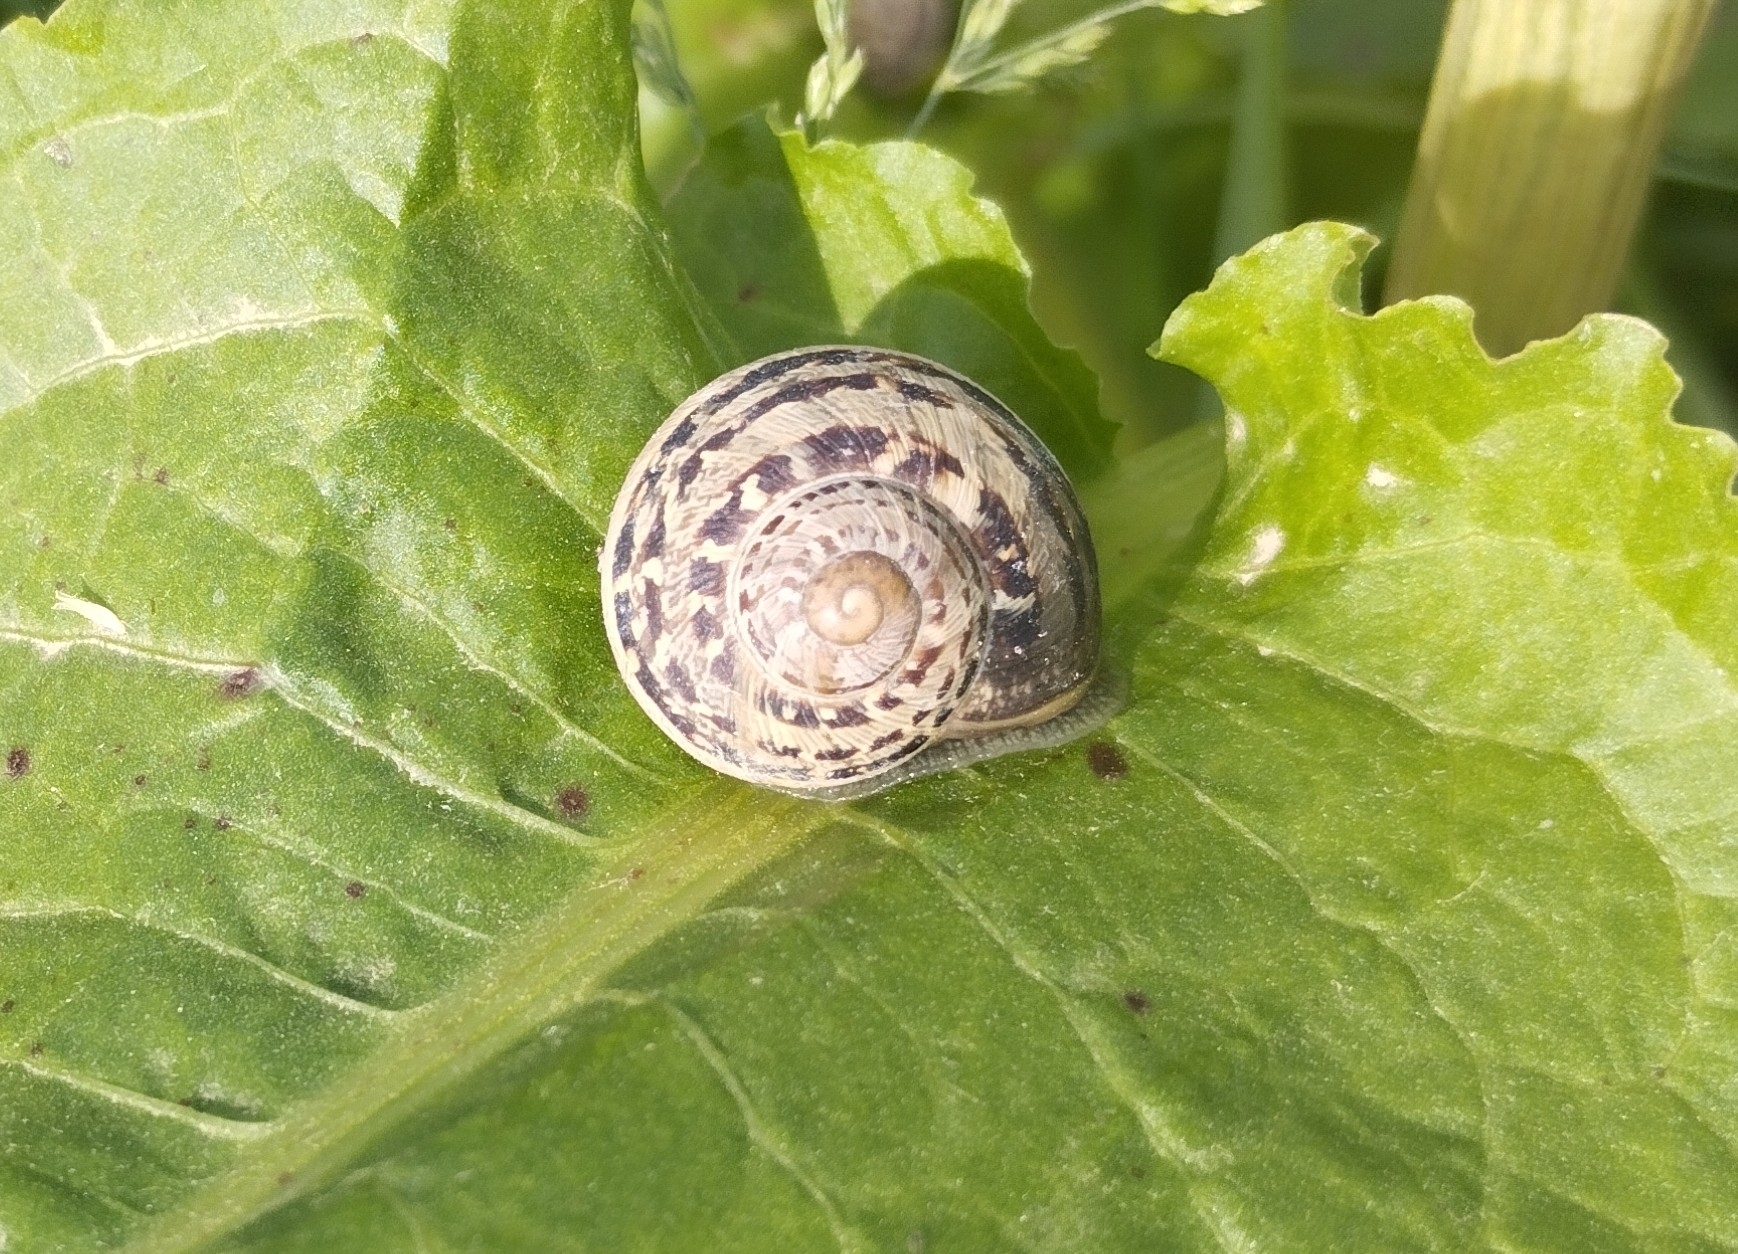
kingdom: Animalia
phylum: Mollusca
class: Gastropoda
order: Stylommatophora
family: Helicidae
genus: Cornu
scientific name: Cornu aspersum
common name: Brown garden snail
